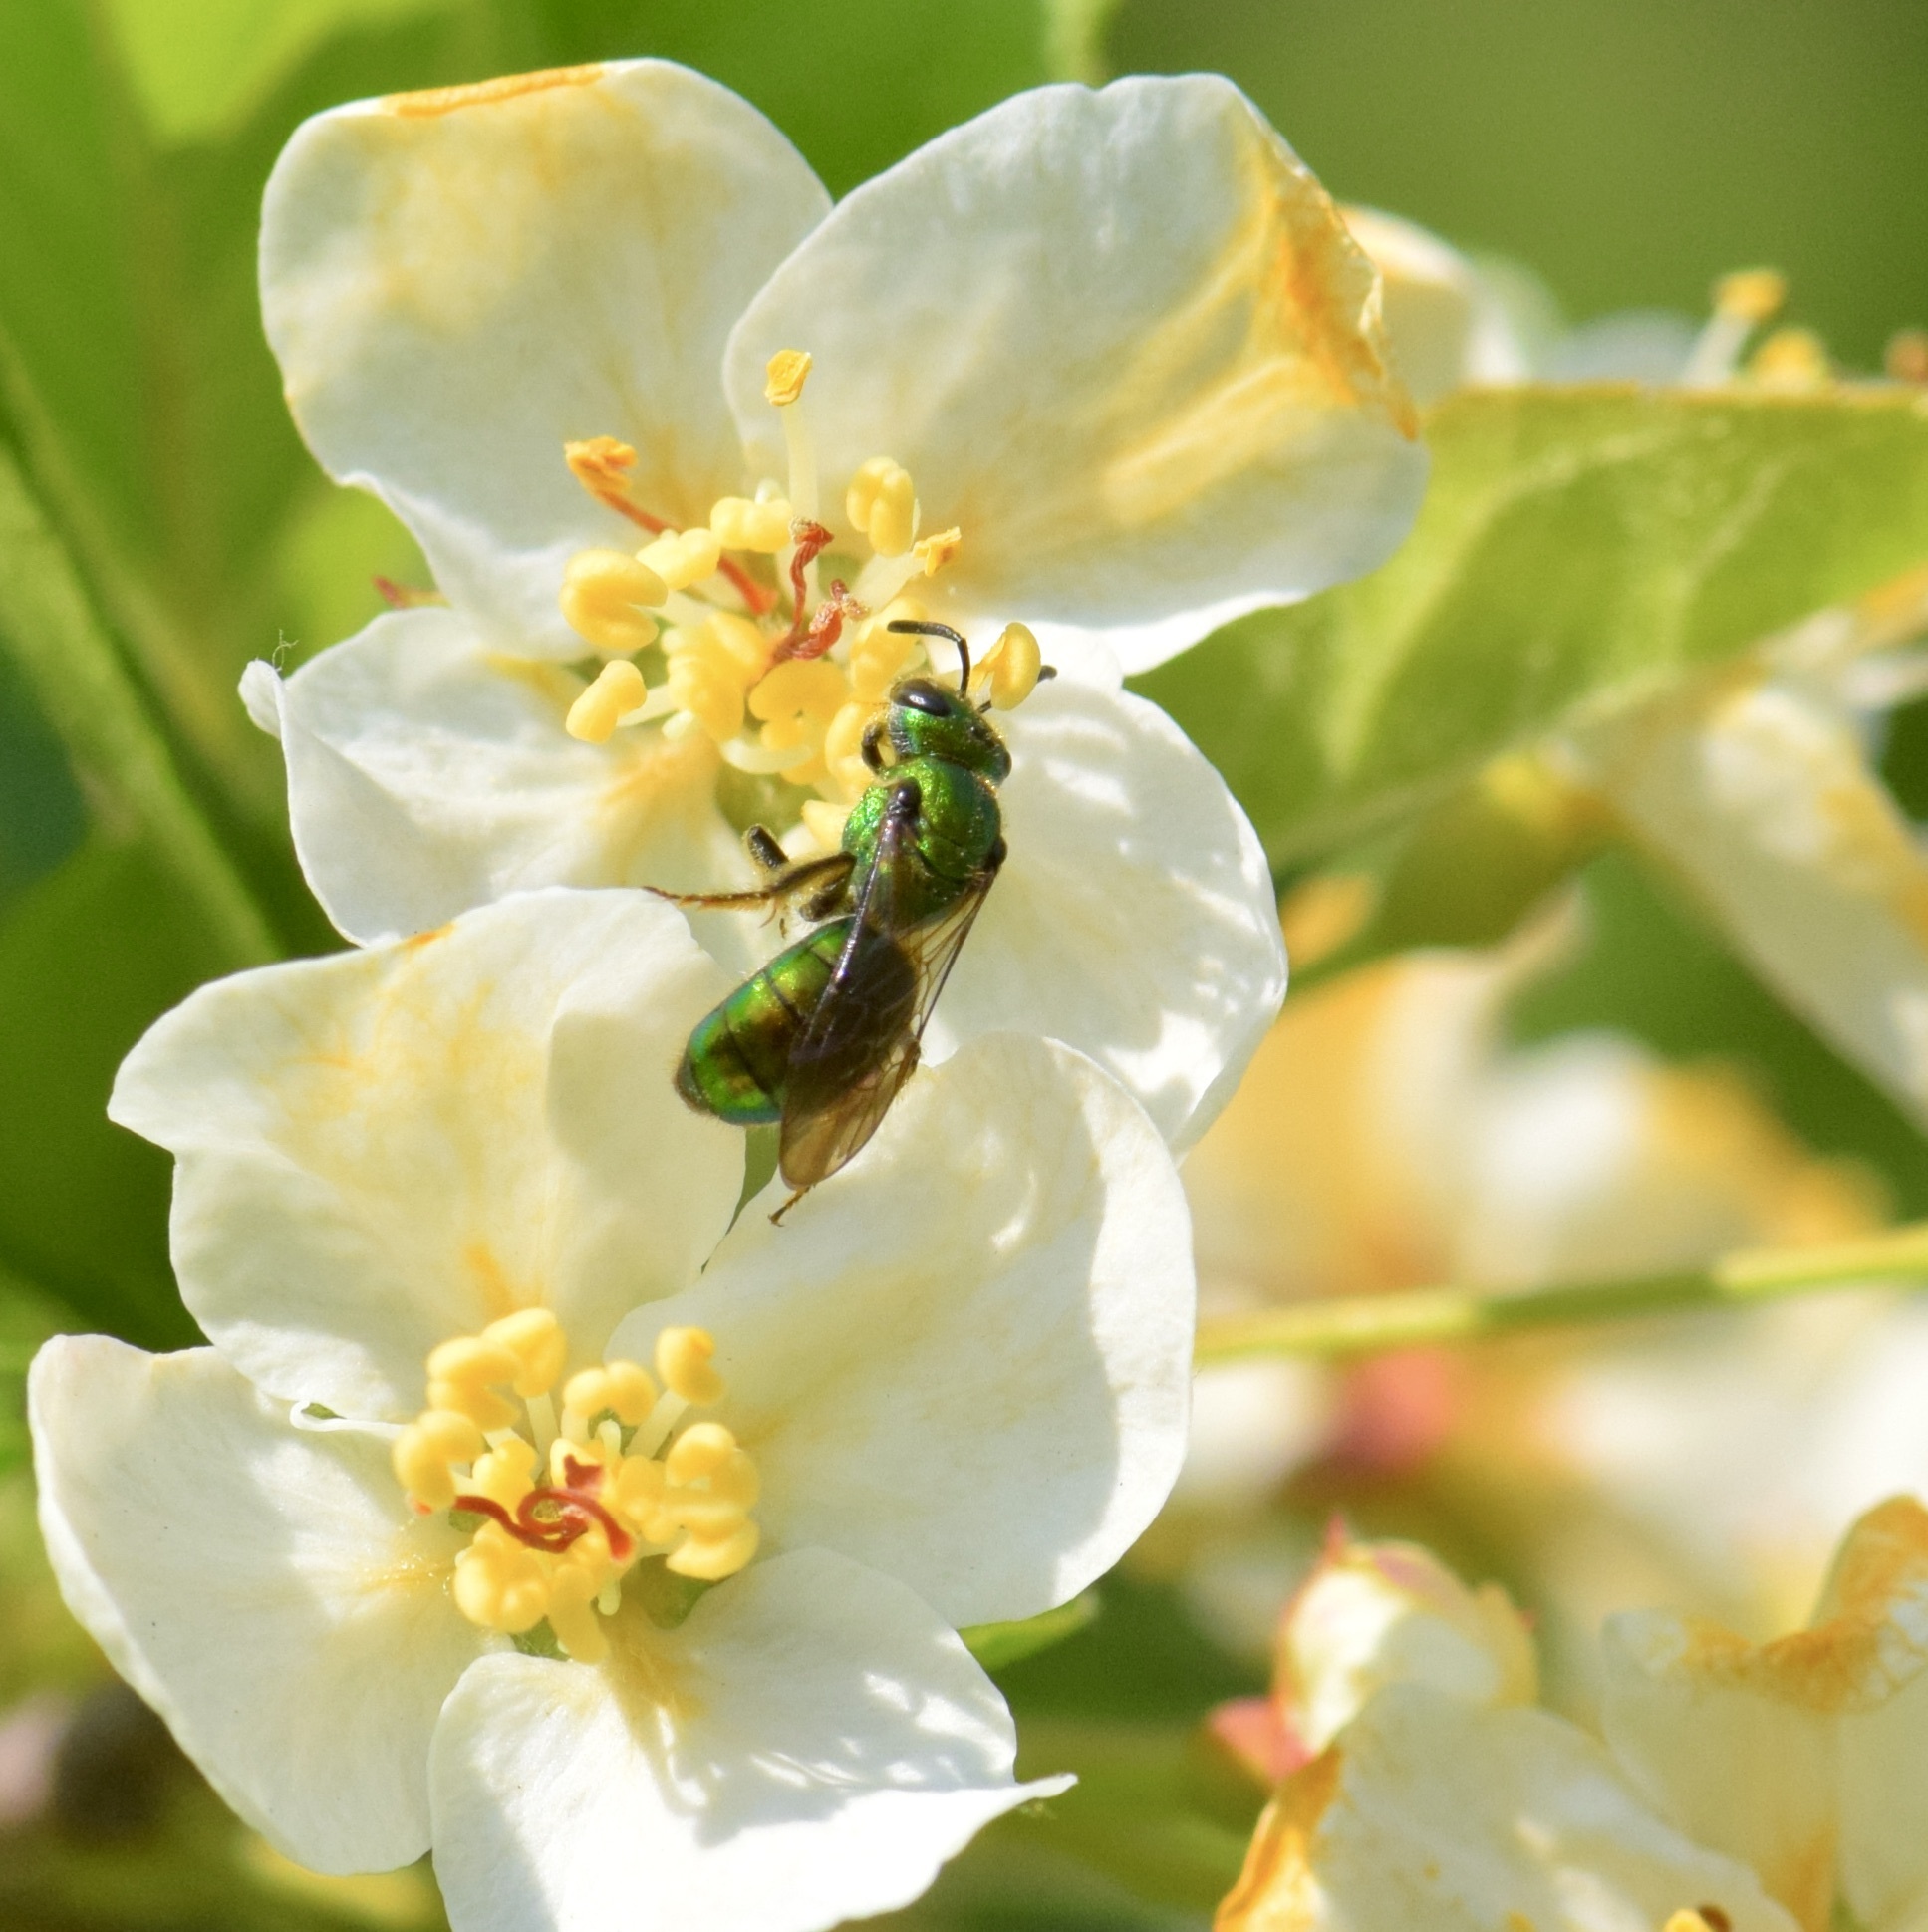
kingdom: Animalia
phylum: Arthropoda
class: Insecta
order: Hymenoptera
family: Halictidae
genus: Augochlora
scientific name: Augochlora pura
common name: Pure green sweat bee
